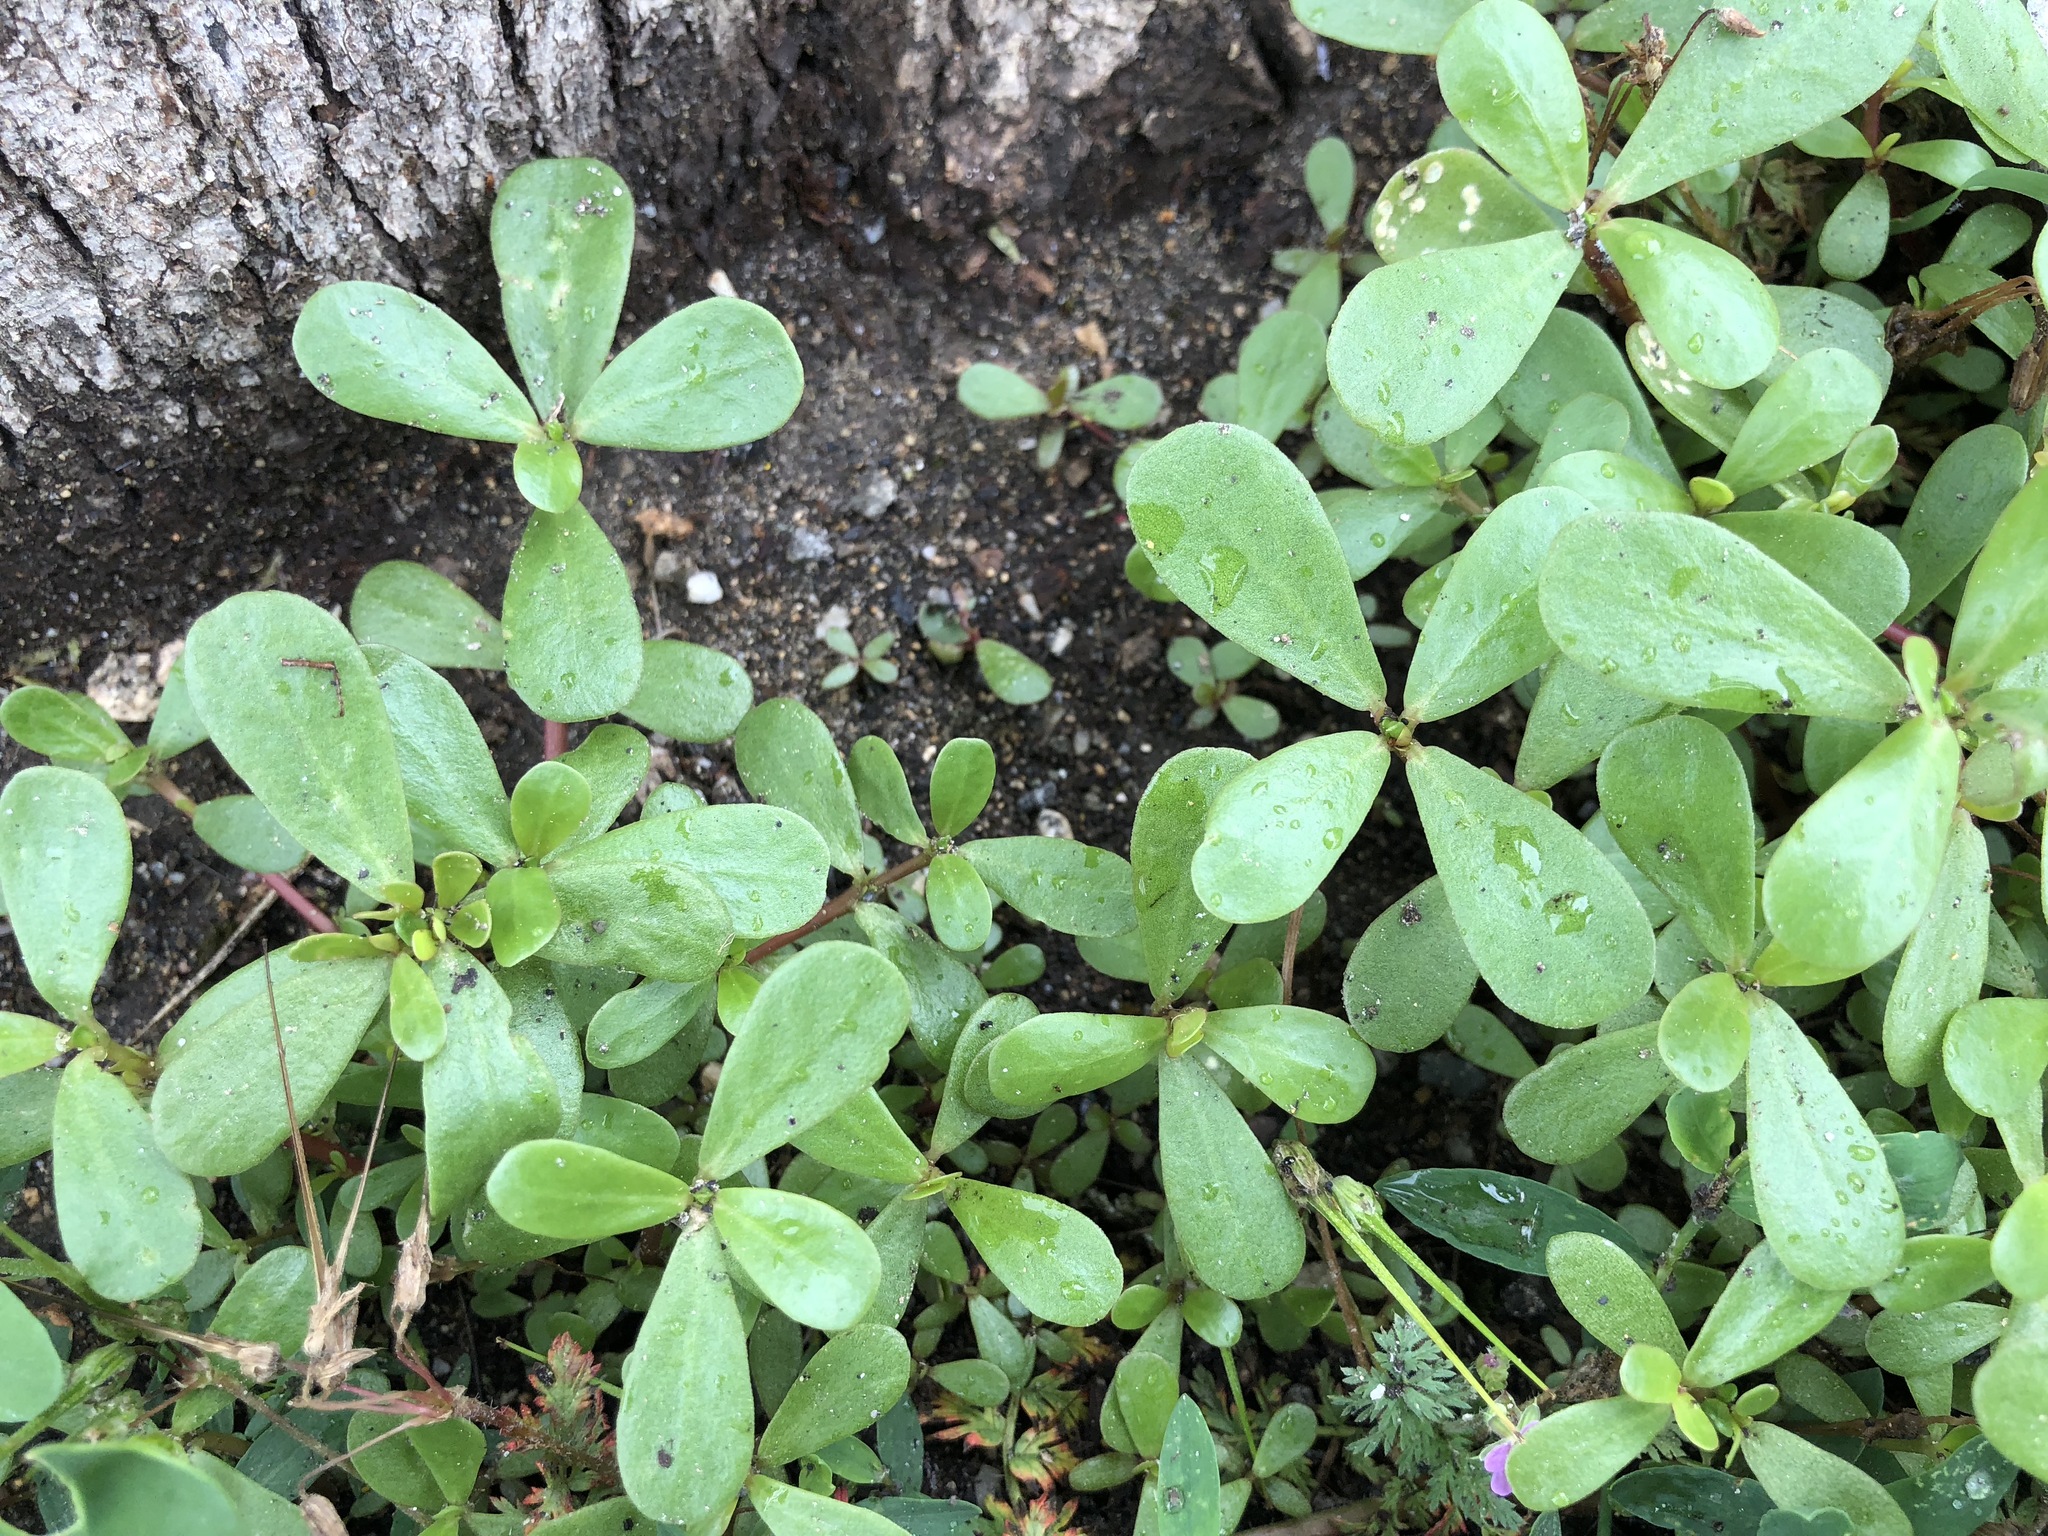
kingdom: Plantae
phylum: Tracheophyta
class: Magnoliopsida
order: Caryophyllales
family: Portulacaceae
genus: Portulaca
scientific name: Portulaca oleracea
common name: Common purslane
